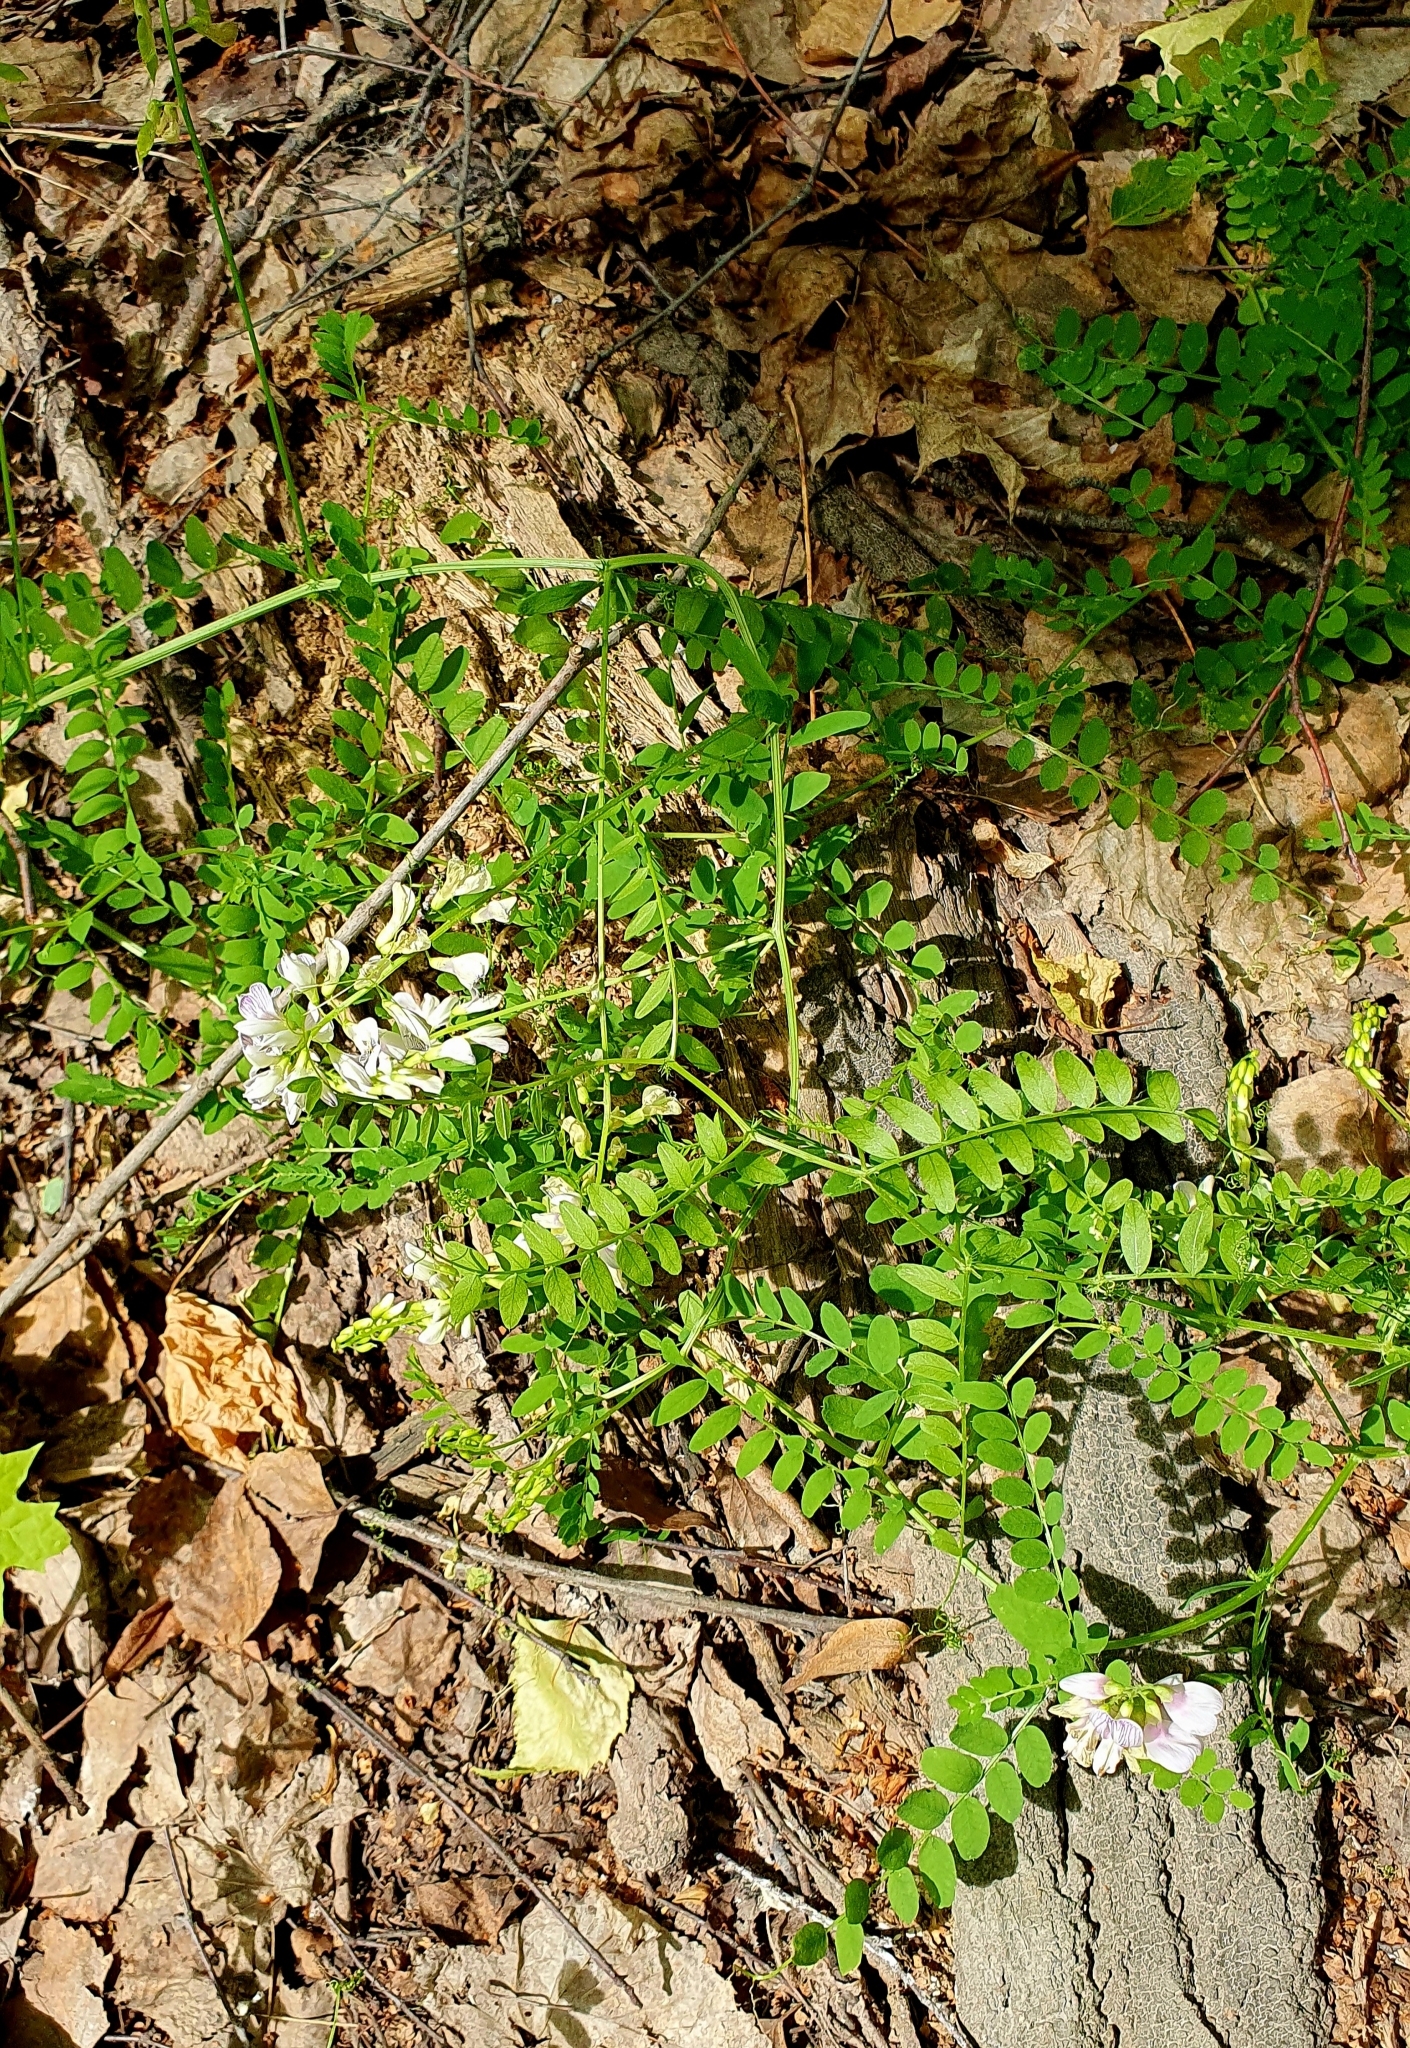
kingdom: Plantae
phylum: Tracheophyta
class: Magnoliopsida
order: Fabales
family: Fabaceae
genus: Vicia
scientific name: Vicia sylvatica
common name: Wood vetch
